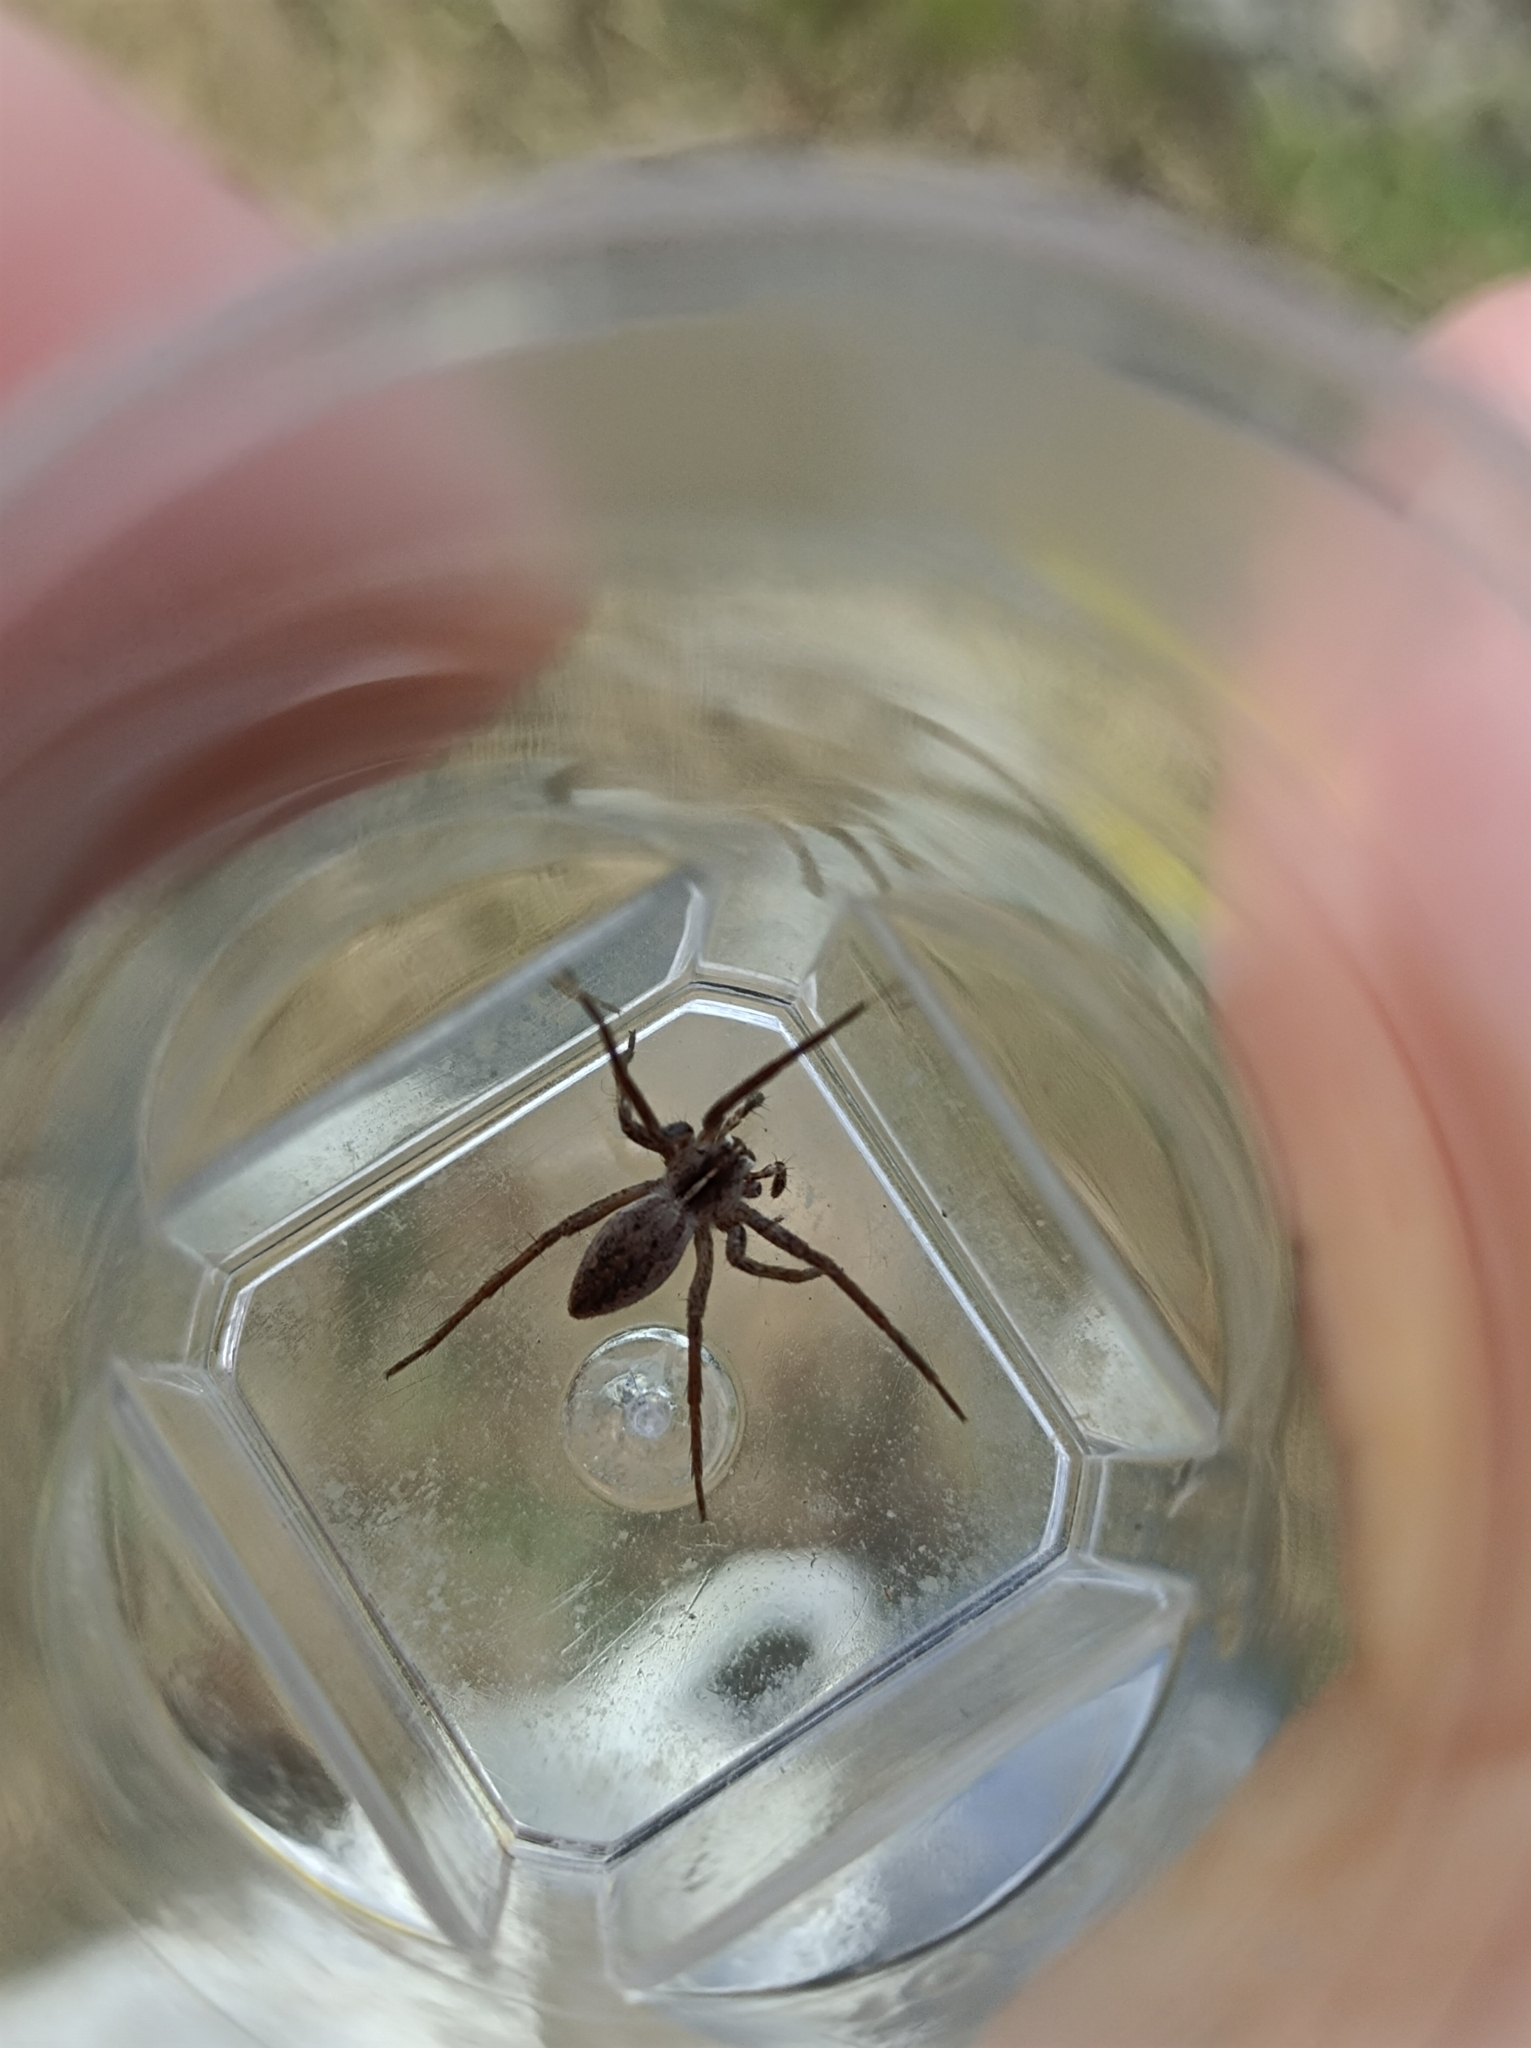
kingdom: Animalia
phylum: Arthropoda
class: Arachnida
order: Araneae
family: Pisauridae
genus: Pisaura
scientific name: Pisaura mirabilis
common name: Tent spider
